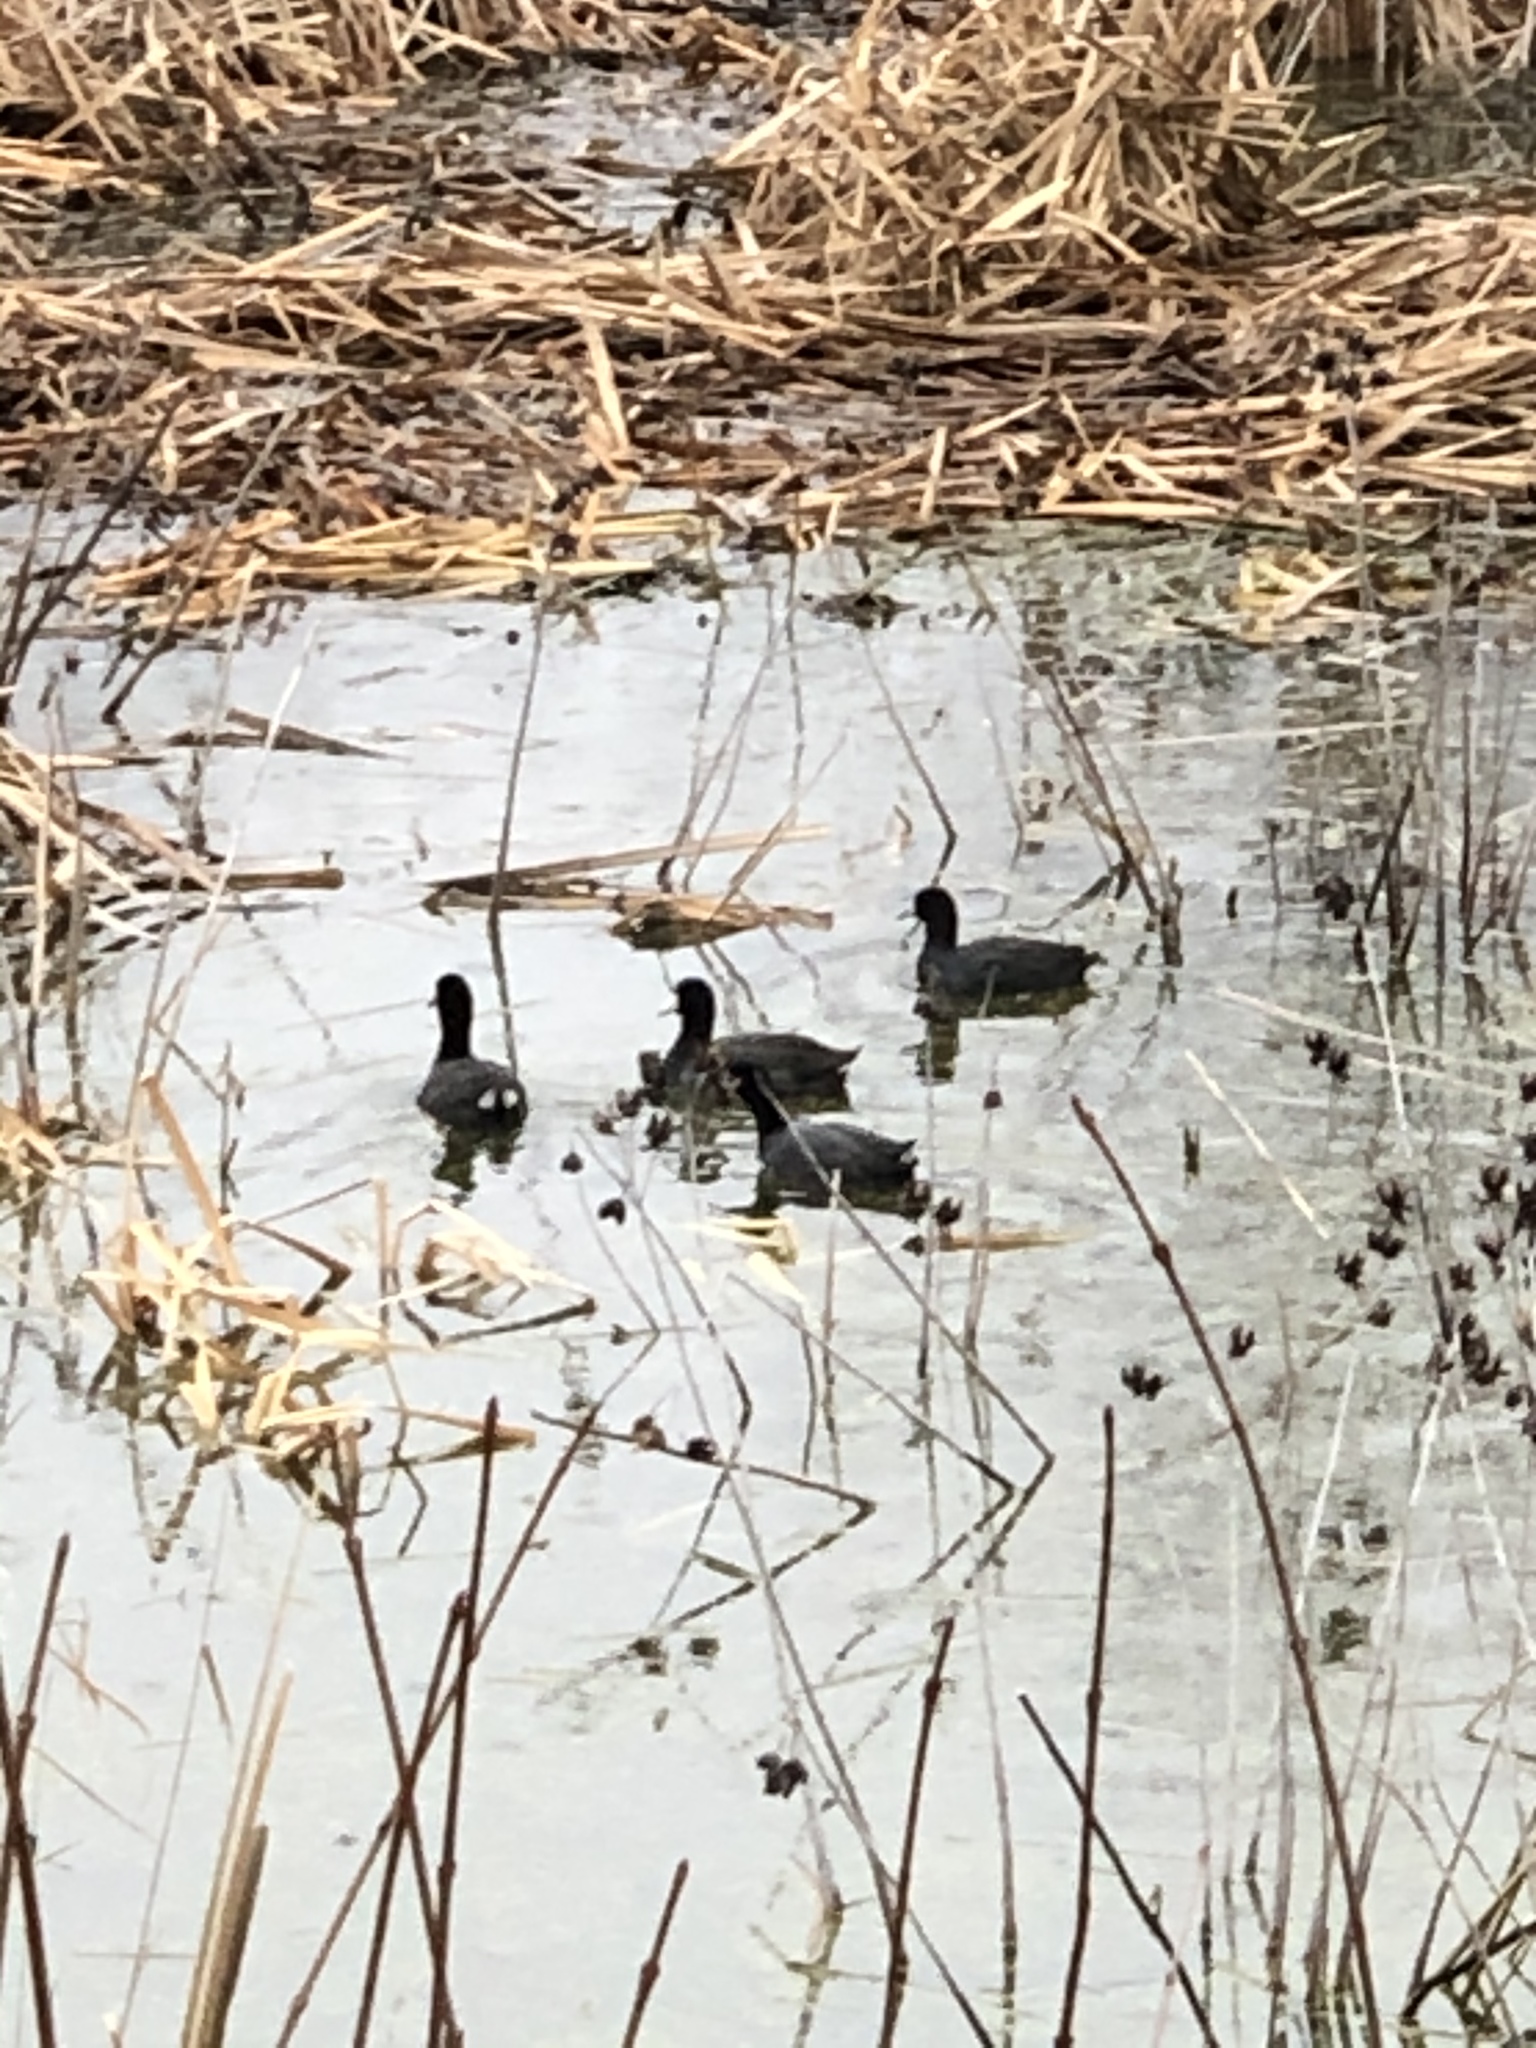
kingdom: Animalia
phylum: Chordata
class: Aves
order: Gruiformes
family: Rallidae
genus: Fulica
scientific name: Fulica americana
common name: American coot
